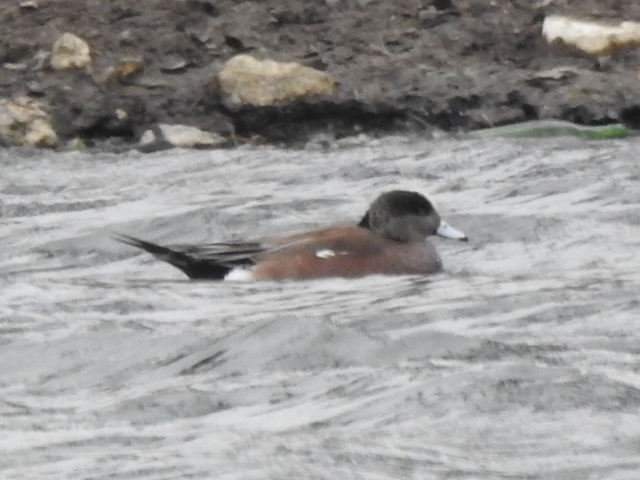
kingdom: Animalia
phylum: Chordata
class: Aves
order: Anseriformes
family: Anatidae
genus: Mareca
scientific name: Mareca americana
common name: American wigeon
